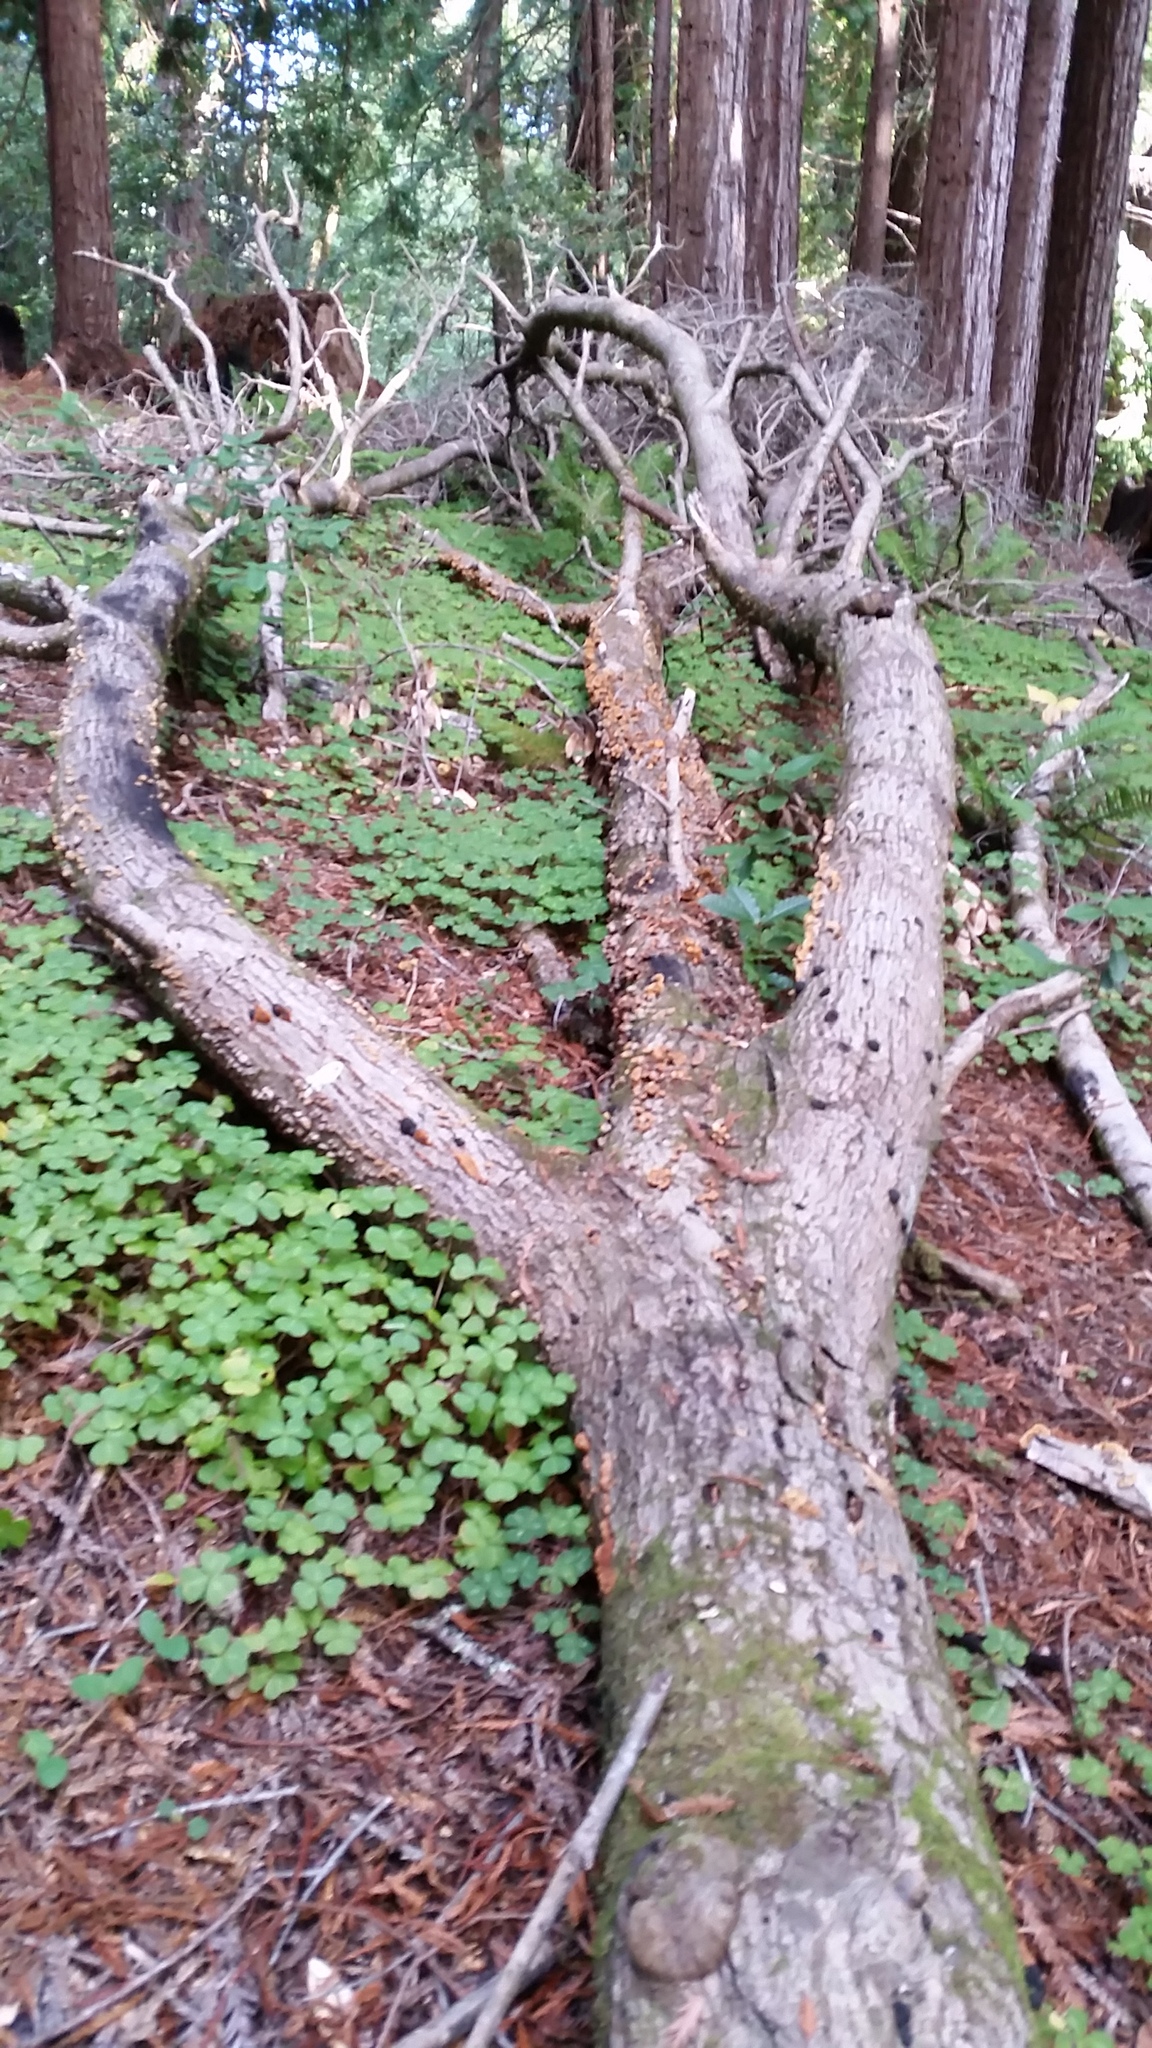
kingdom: Fungi
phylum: Basidiomycota
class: Agaricomycetes
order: Hymenochaetales
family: Hymenochaetaceae
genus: Phellinus
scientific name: Phellinus gilvus
